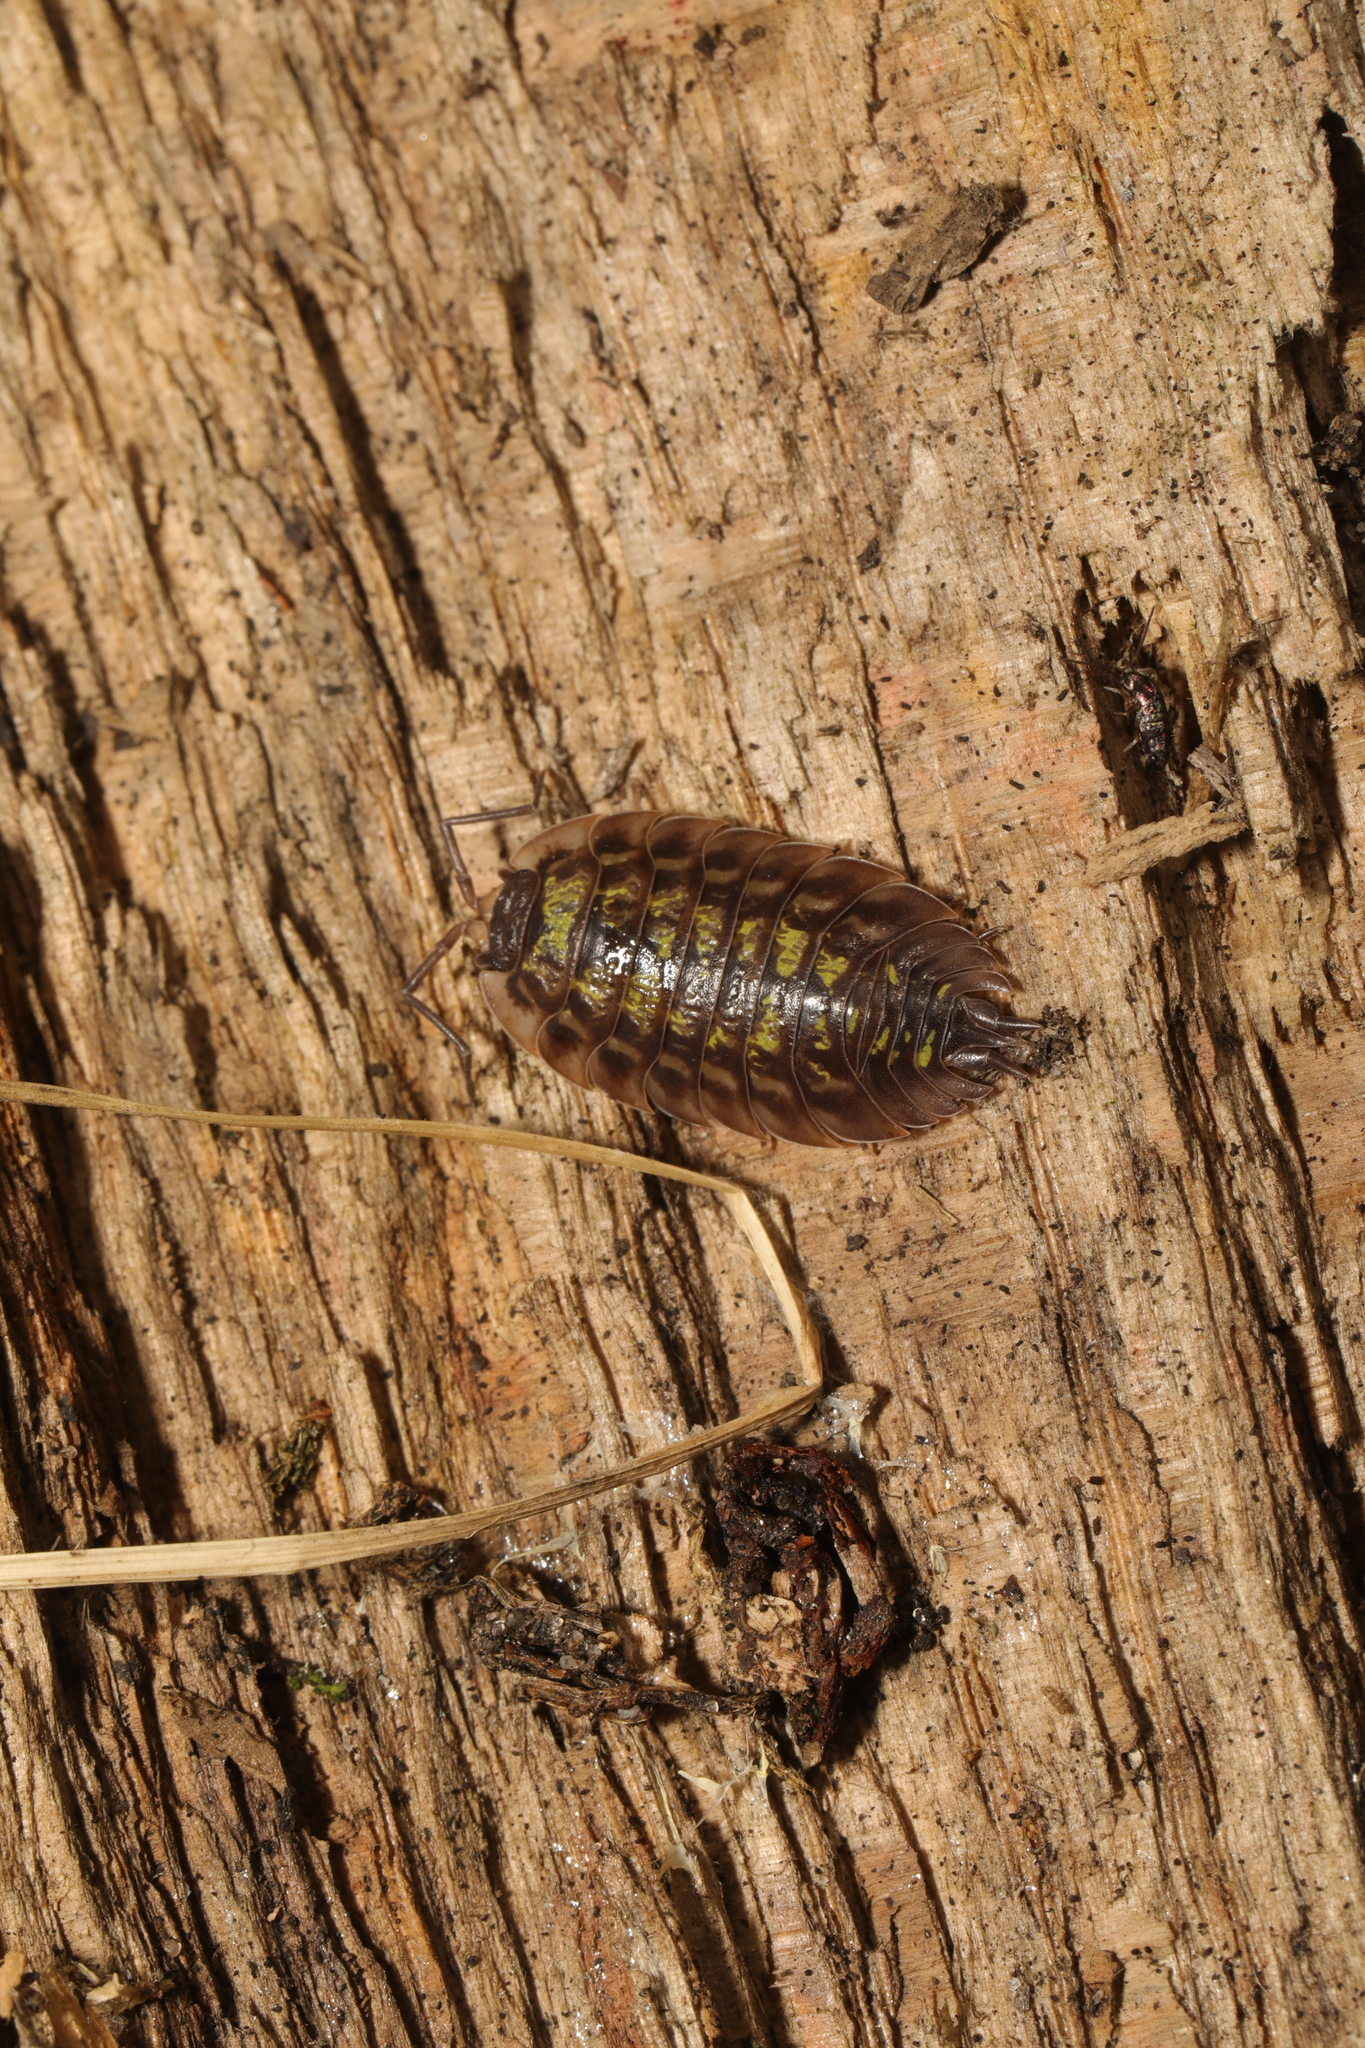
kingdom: Animalia
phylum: Arthropoda
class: Malacostraca
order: Isopoda
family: Oniscidae
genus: Oniscus
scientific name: Oniscus asellus
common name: Common shiny woodlouse
